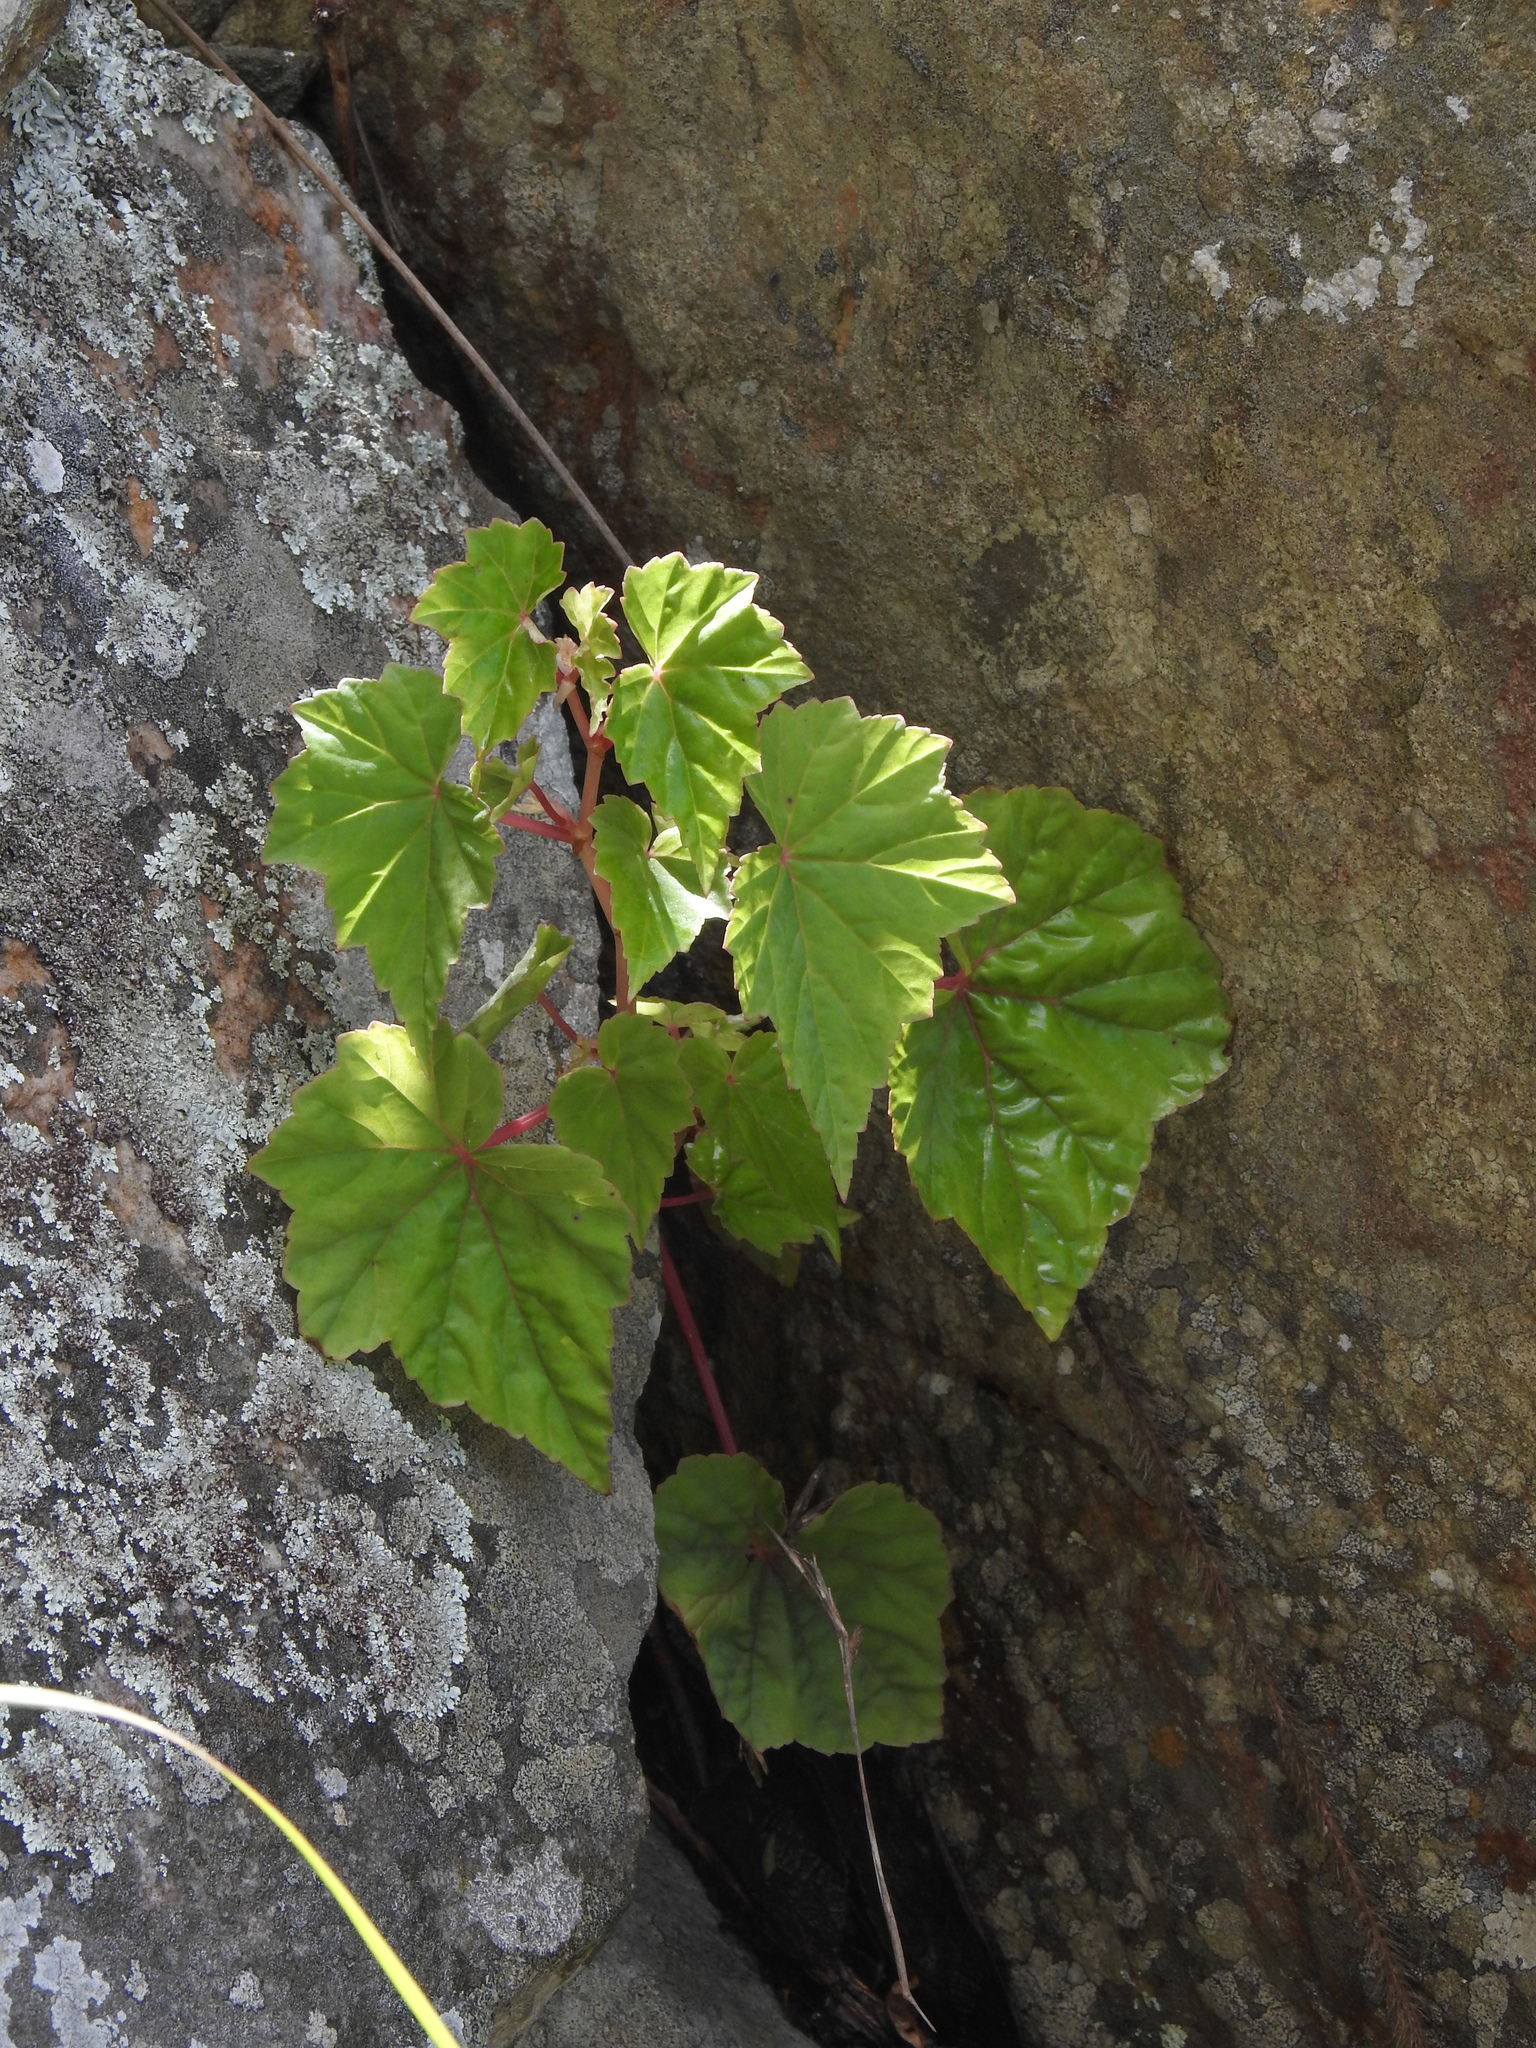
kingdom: Plantae
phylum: Tracheophyta
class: Magnoliopsida
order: Cucurbitales
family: Begoniaceae
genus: Begonia
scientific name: Begonia sonderiana
